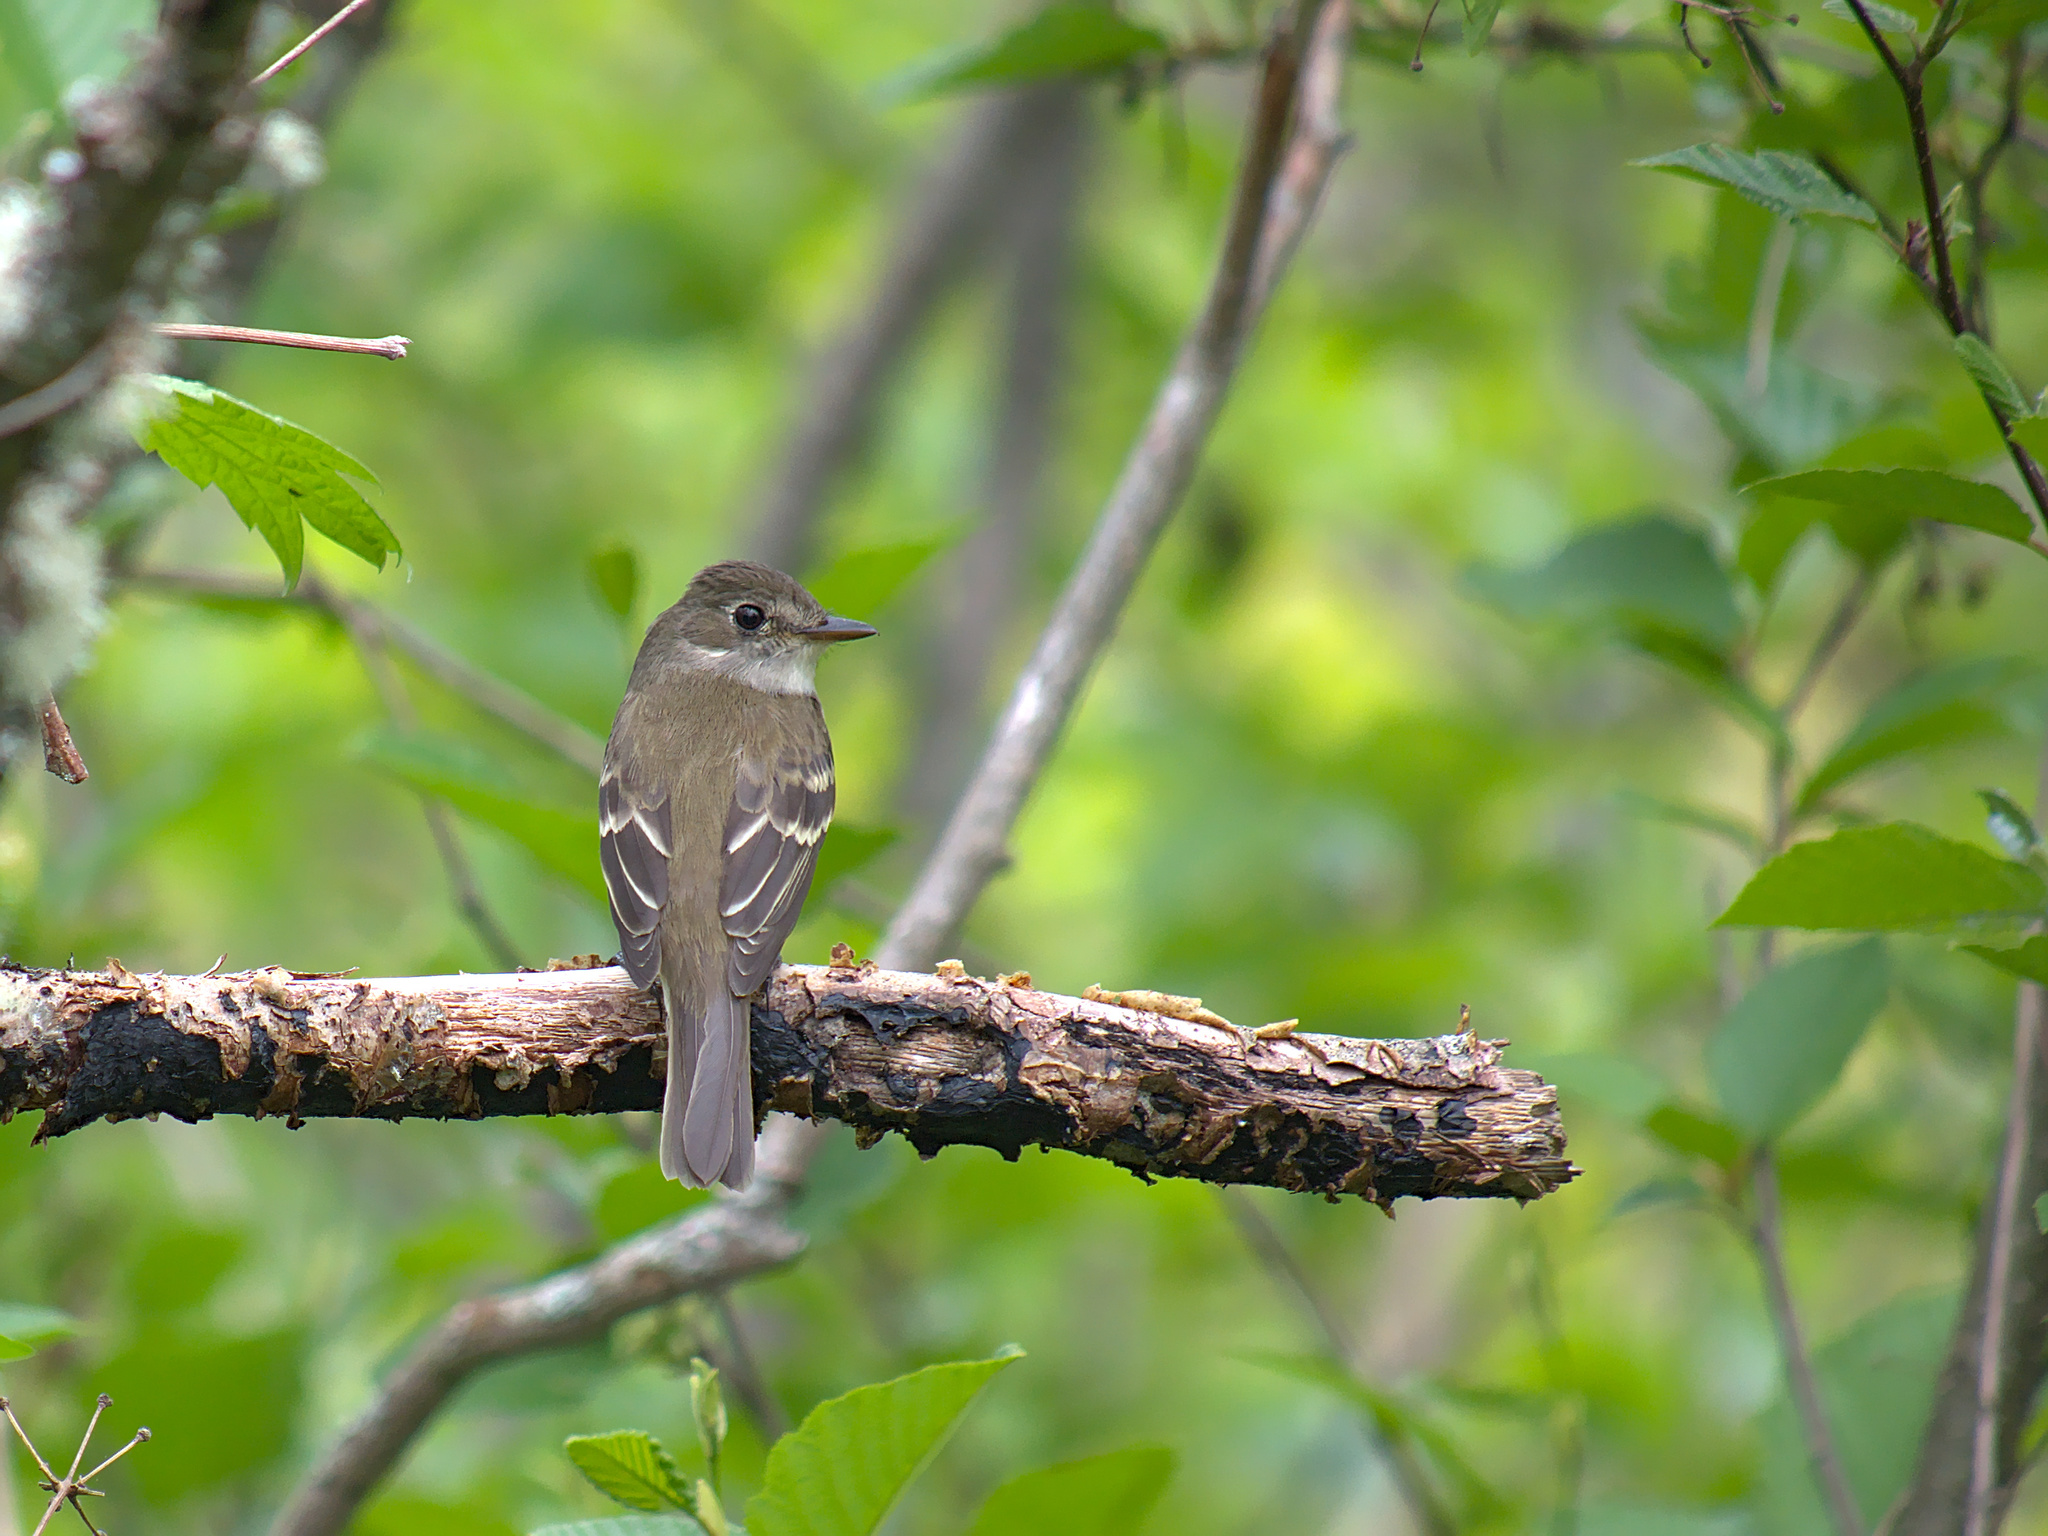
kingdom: Animalia
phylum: Chordata
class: Aves
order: Passeriformes
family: Tyrannidae
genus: Empidonax
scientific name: Empidonax alnorum
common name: Alder flycatcher
